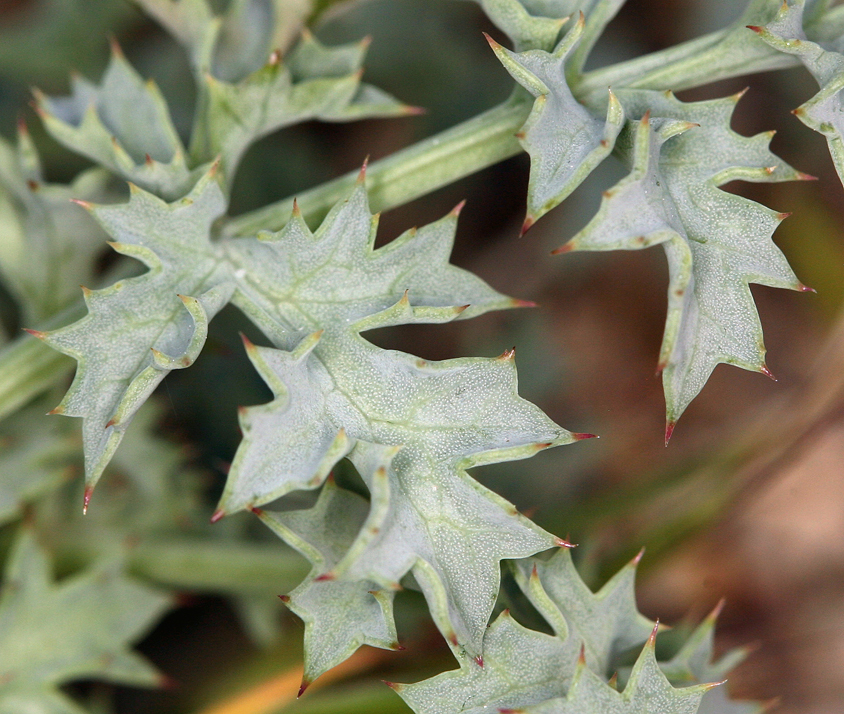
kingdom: Plantae
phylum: Tracheophyta
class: Magnoliopsida
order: Apiales
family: Apiaceae
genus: Lomatium
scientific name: Lomatium rigidum
